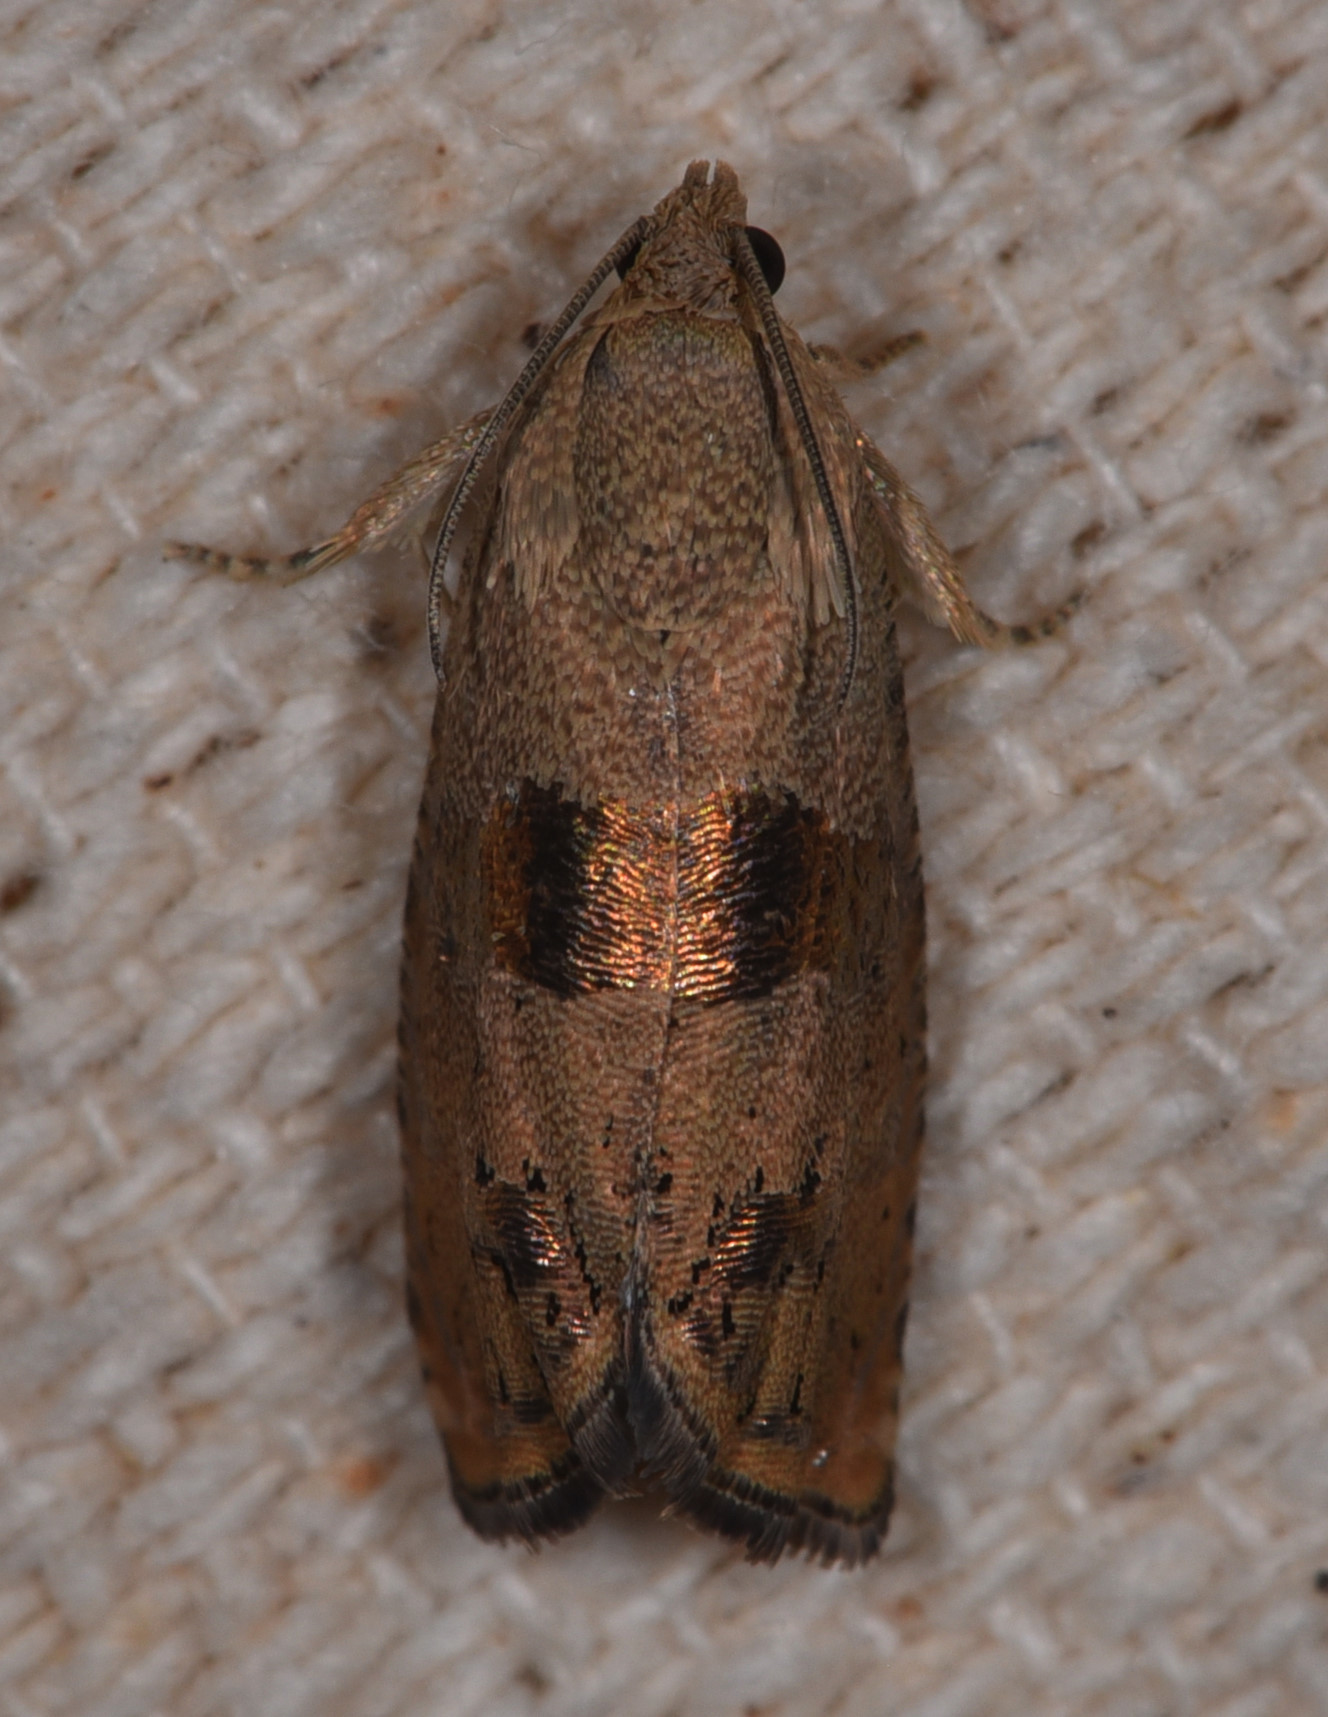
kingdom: Animalia
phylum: Arthropoda
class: Insecta
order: Lepidoptera
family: Tortricidae
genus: Cydia
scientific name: Cydia latiferreana
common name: Filbertworm moth
